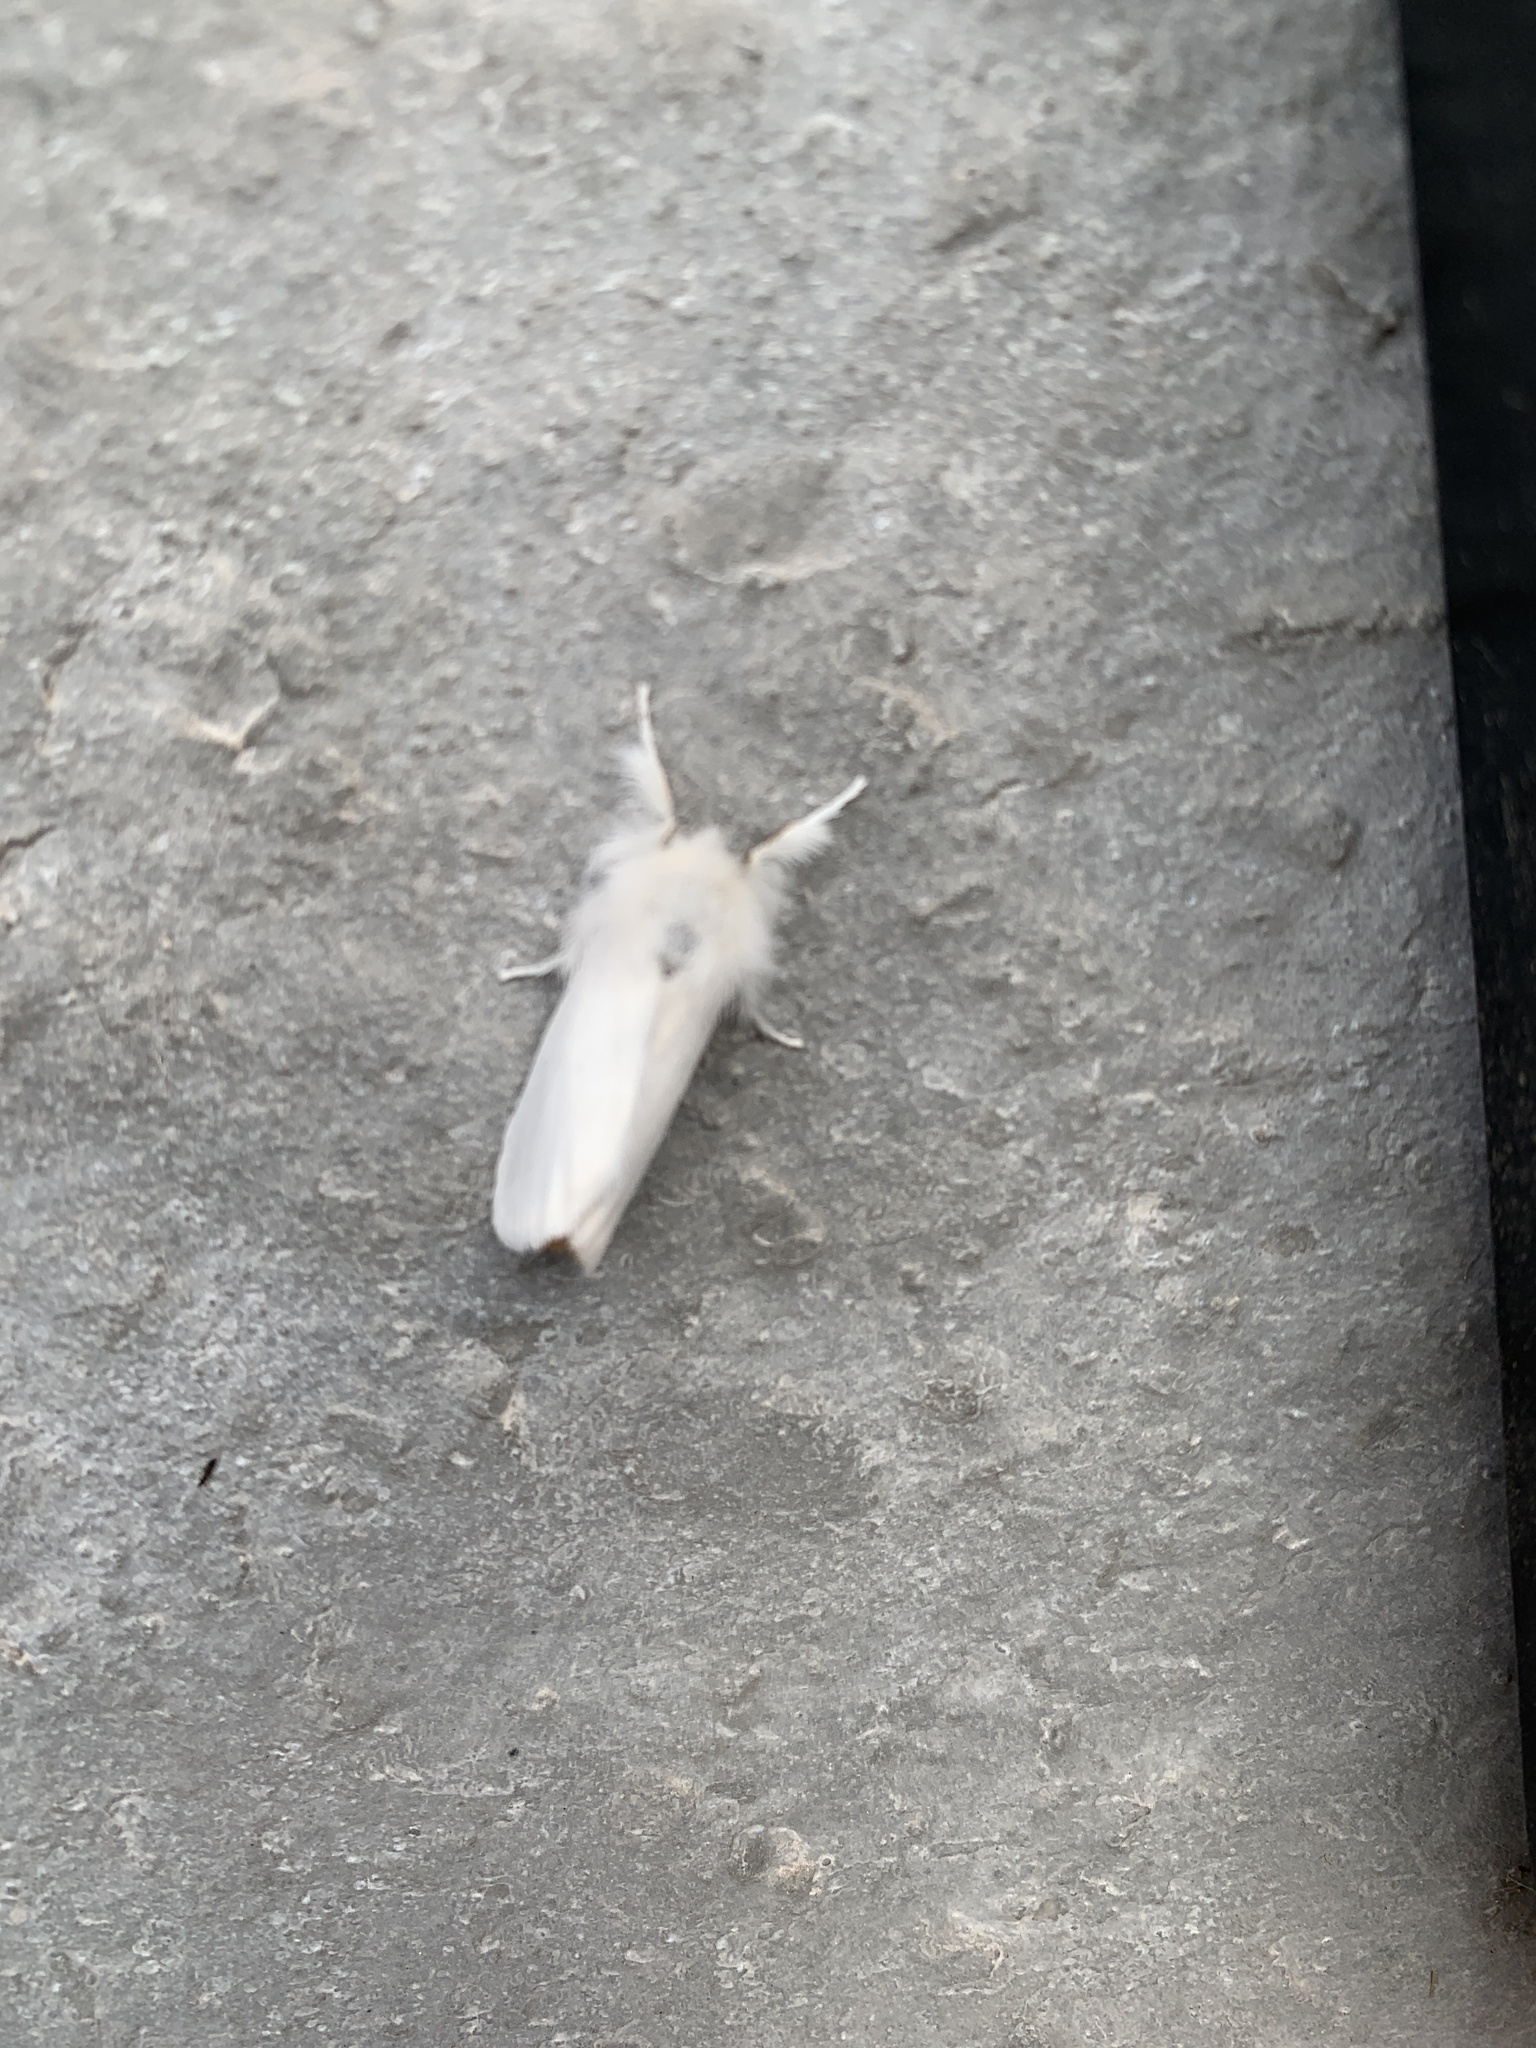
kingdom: Animalia
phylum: Arthropoda
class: Insecta
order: Lepidoptera
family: Erebidae
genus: Euproctis
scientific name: Euproctis chrysorrhoea
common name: Brown-tail
